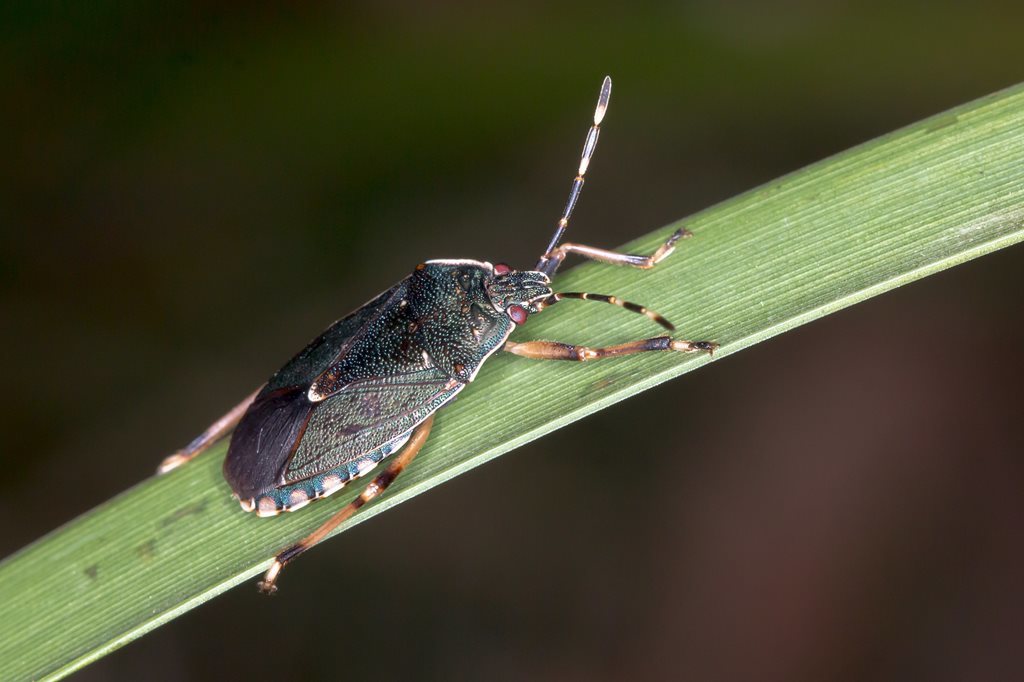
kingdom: Animalia
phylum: Arthropoda
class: Insecta
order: Hemiptera
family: Pentatomidae
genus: Notius
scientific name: Notius
